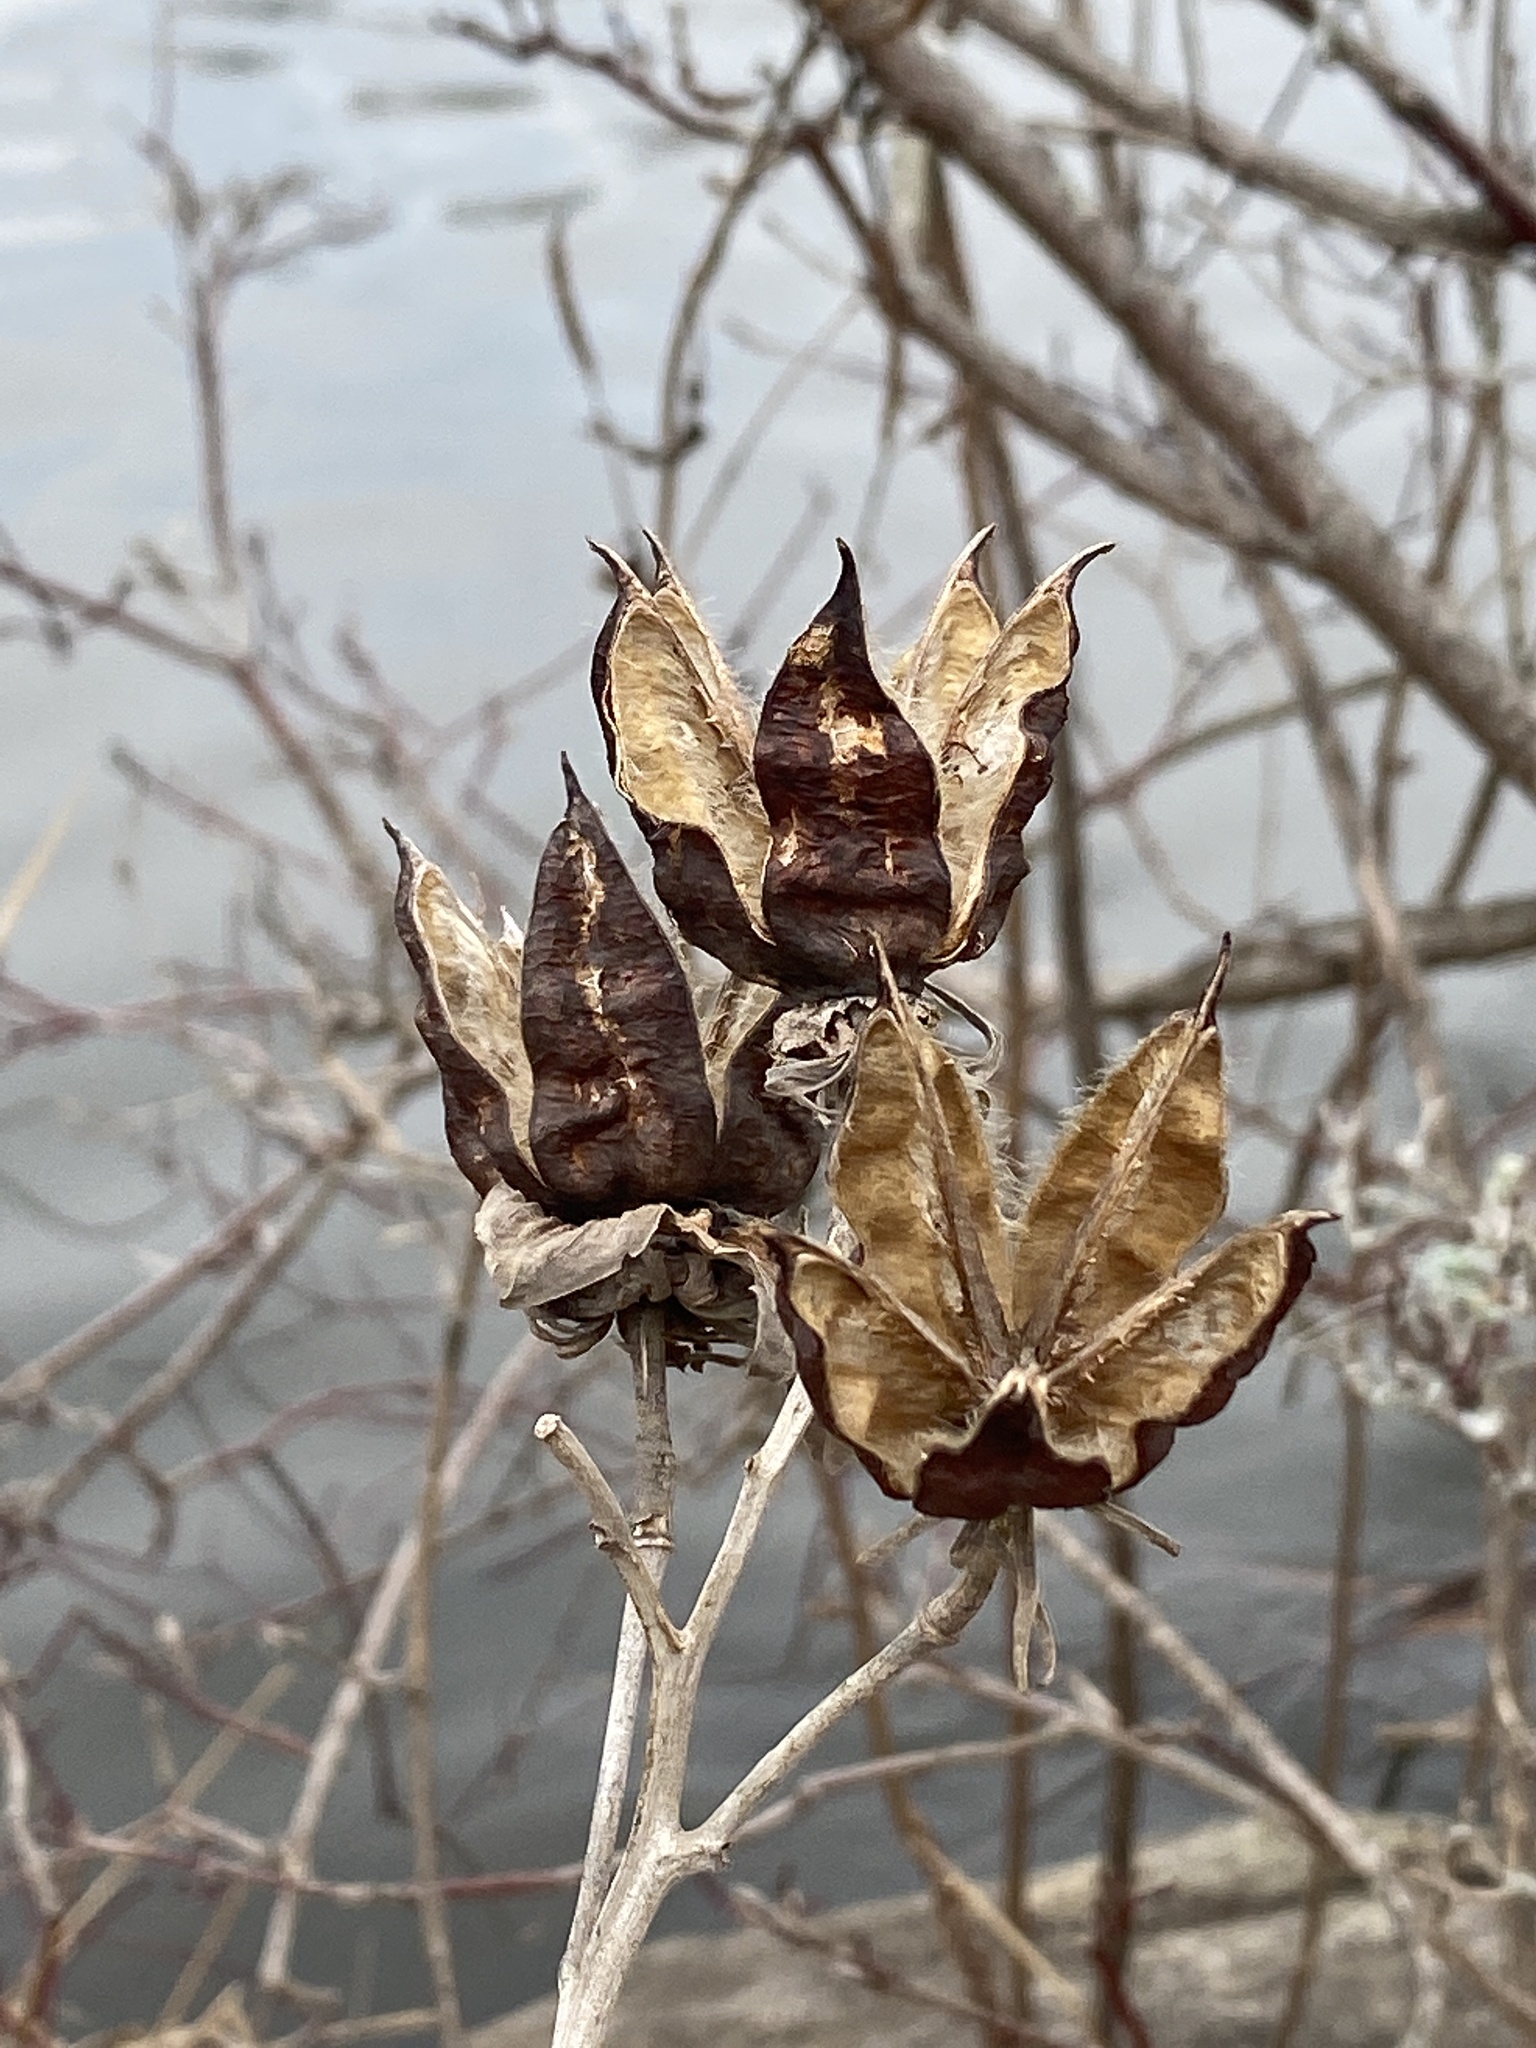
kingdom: Plantae
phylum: Tracheophyta
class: Magnoliopsida
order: Malvales
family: Malvaceae
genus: Hibiscus
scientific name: Hibiscus moscheutos
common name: Common rose-mallow
